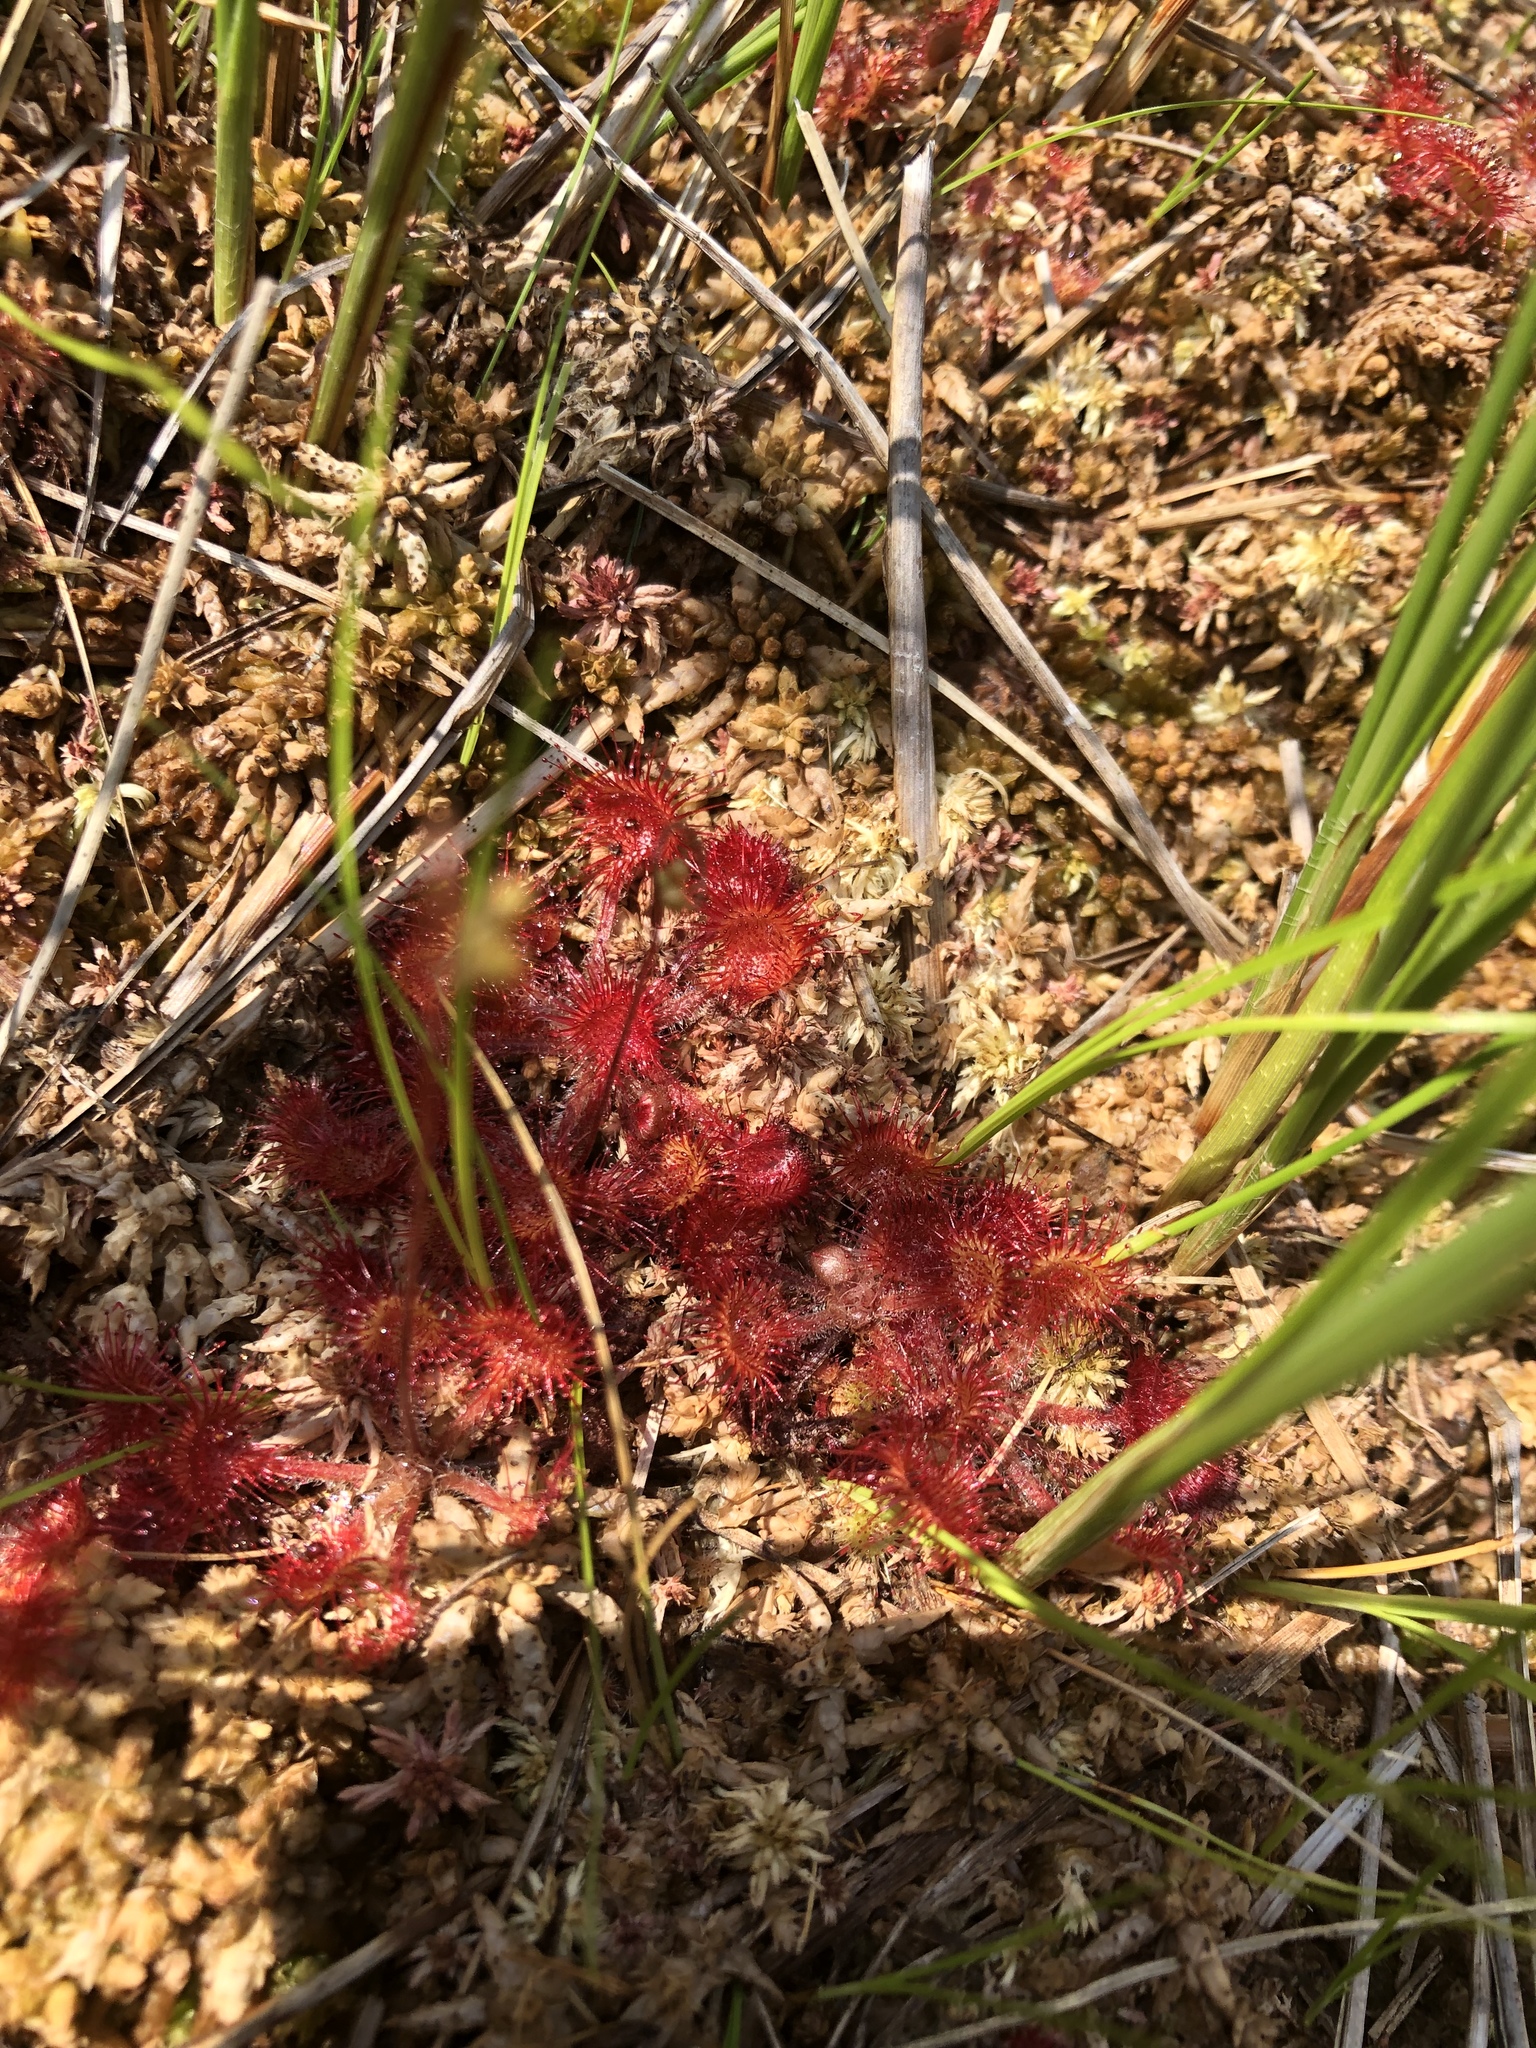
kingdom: Plantae
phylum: Tracheophyta
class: Magnoliopsida
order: Caryophyllales
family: Droseraceae
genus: Drosera
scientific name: Drosera rotundifolia
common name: Round-leaved sundew
